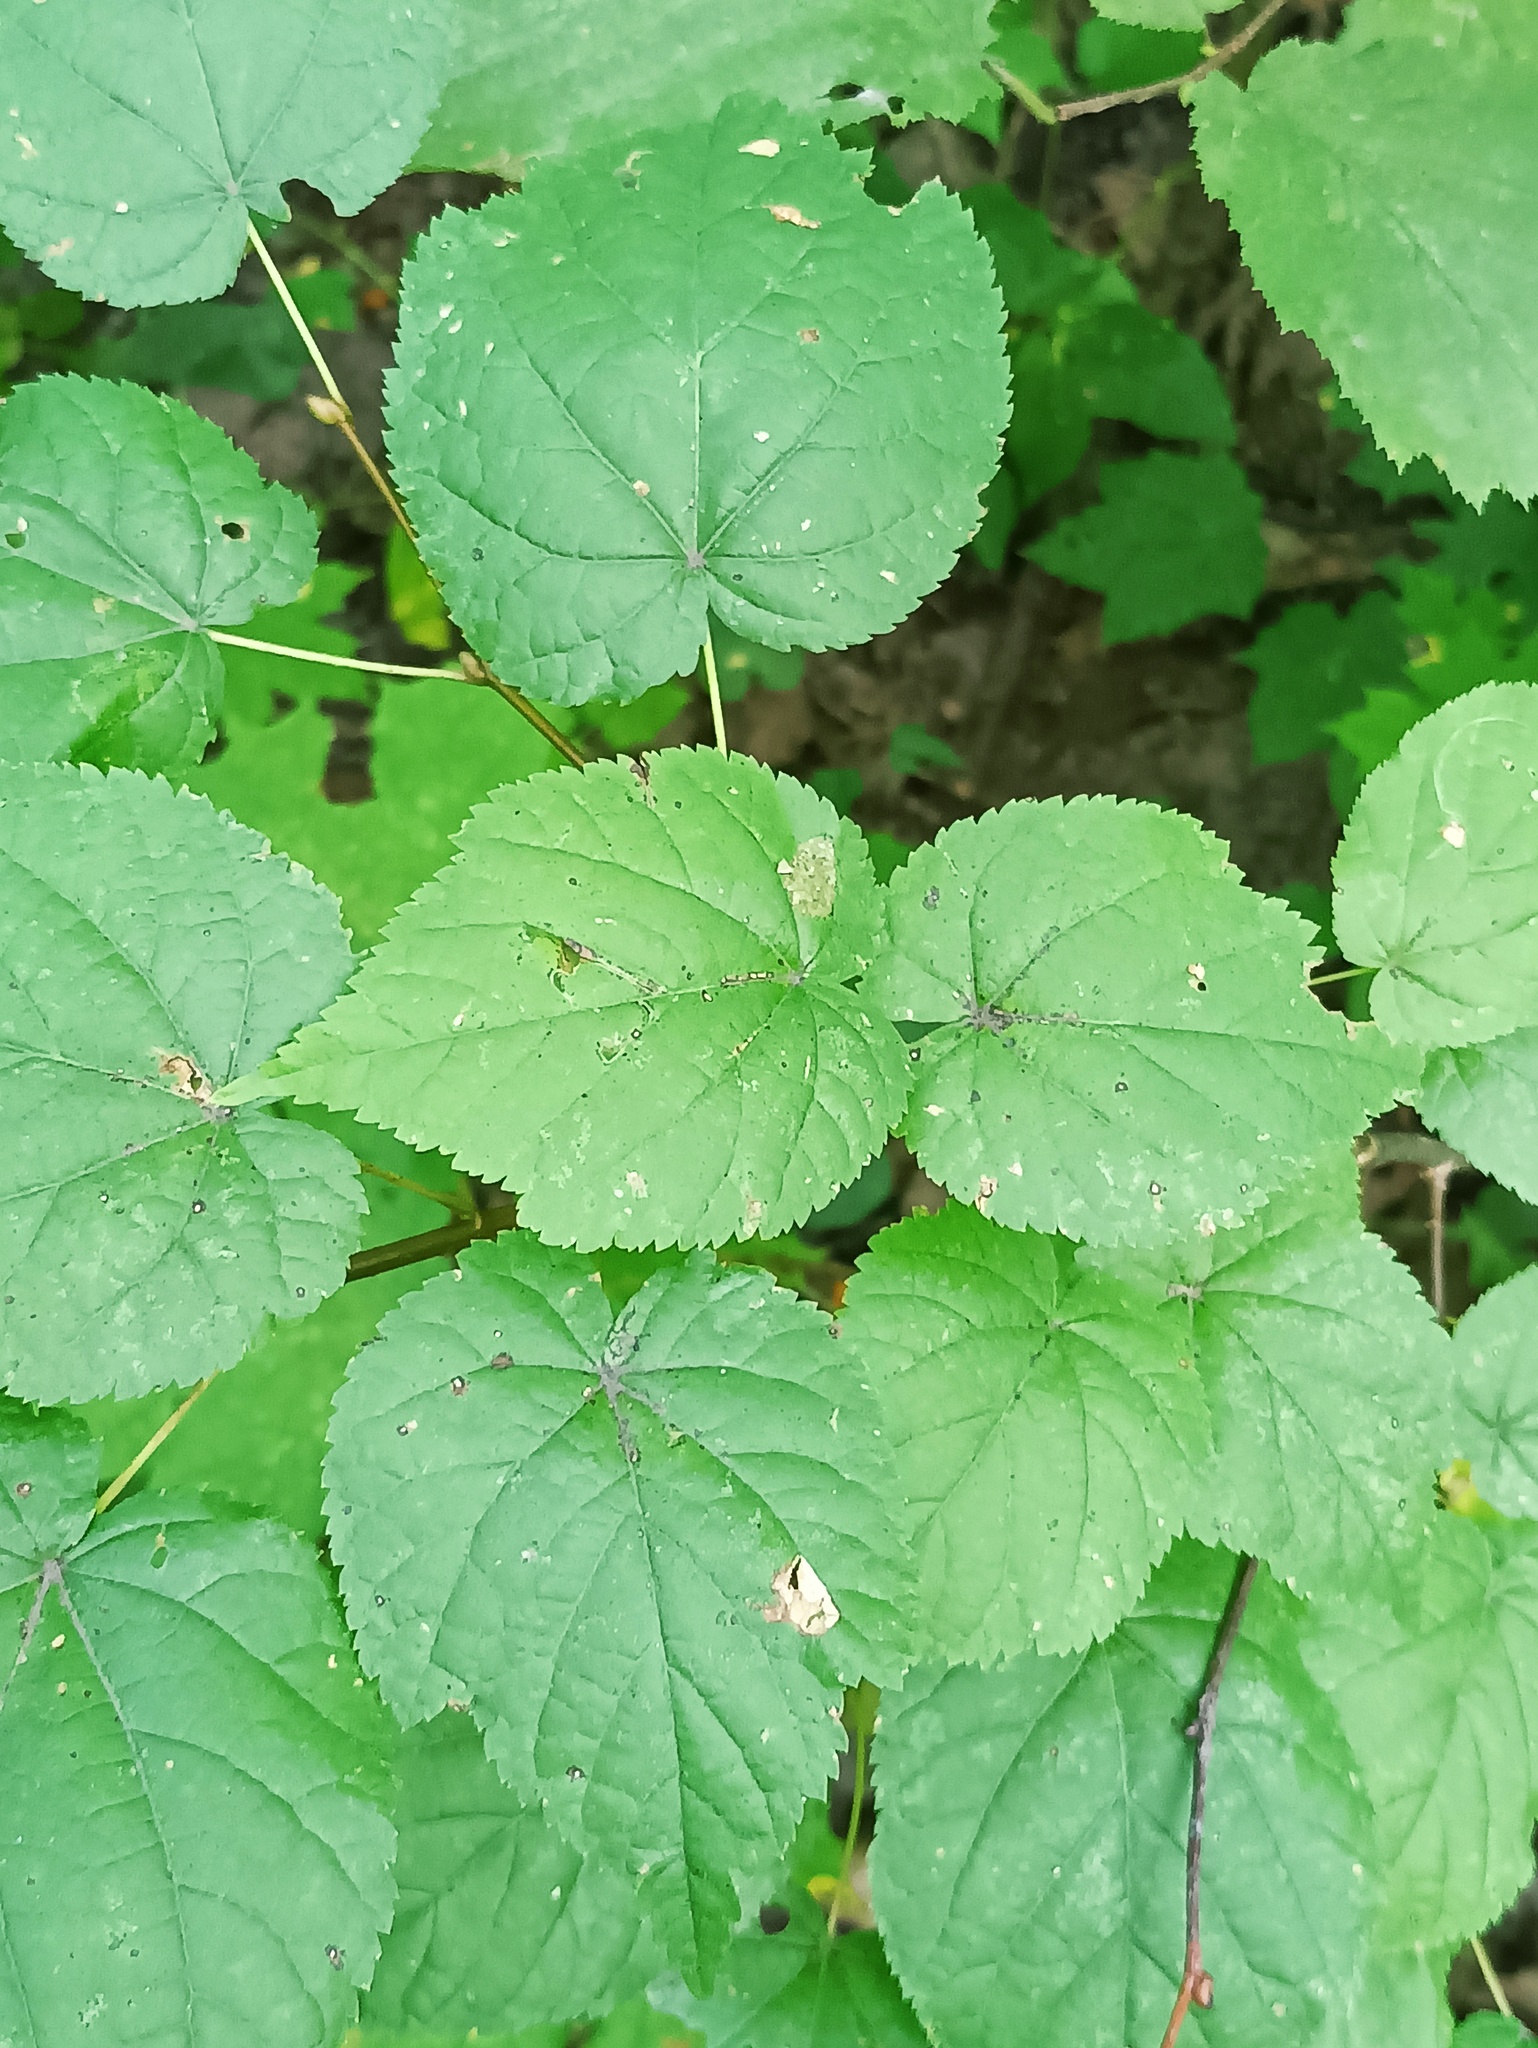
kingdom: Plantae
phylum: Tracheophyta
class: Magnoliopsida
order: Malvales
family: Malvaceae
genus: Tilia
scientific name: Tilia cordata
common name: Small-leaved lime
